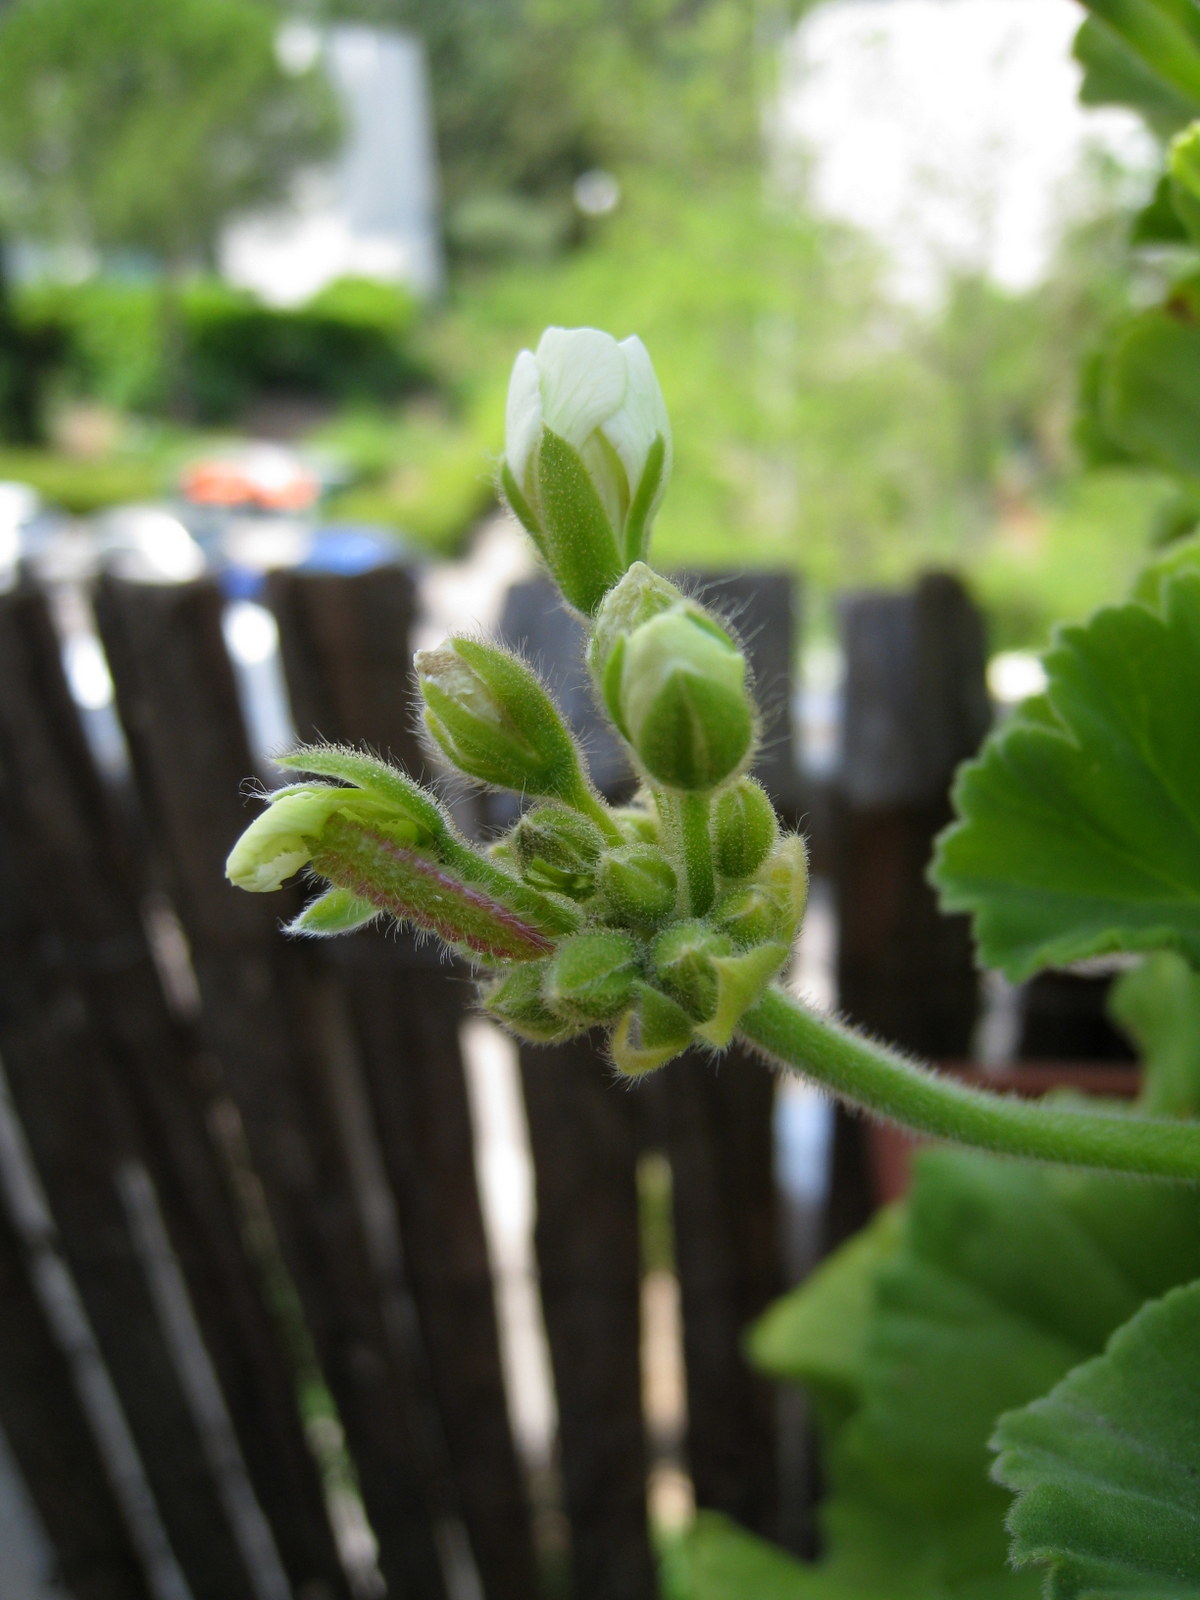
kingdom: Animalia
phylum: Arthropoda
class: Insecta
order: Lepidoptera
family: Lycaenidae
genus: Cacyreus
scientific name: Cacyreus marshalli
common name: Geranium bronze
